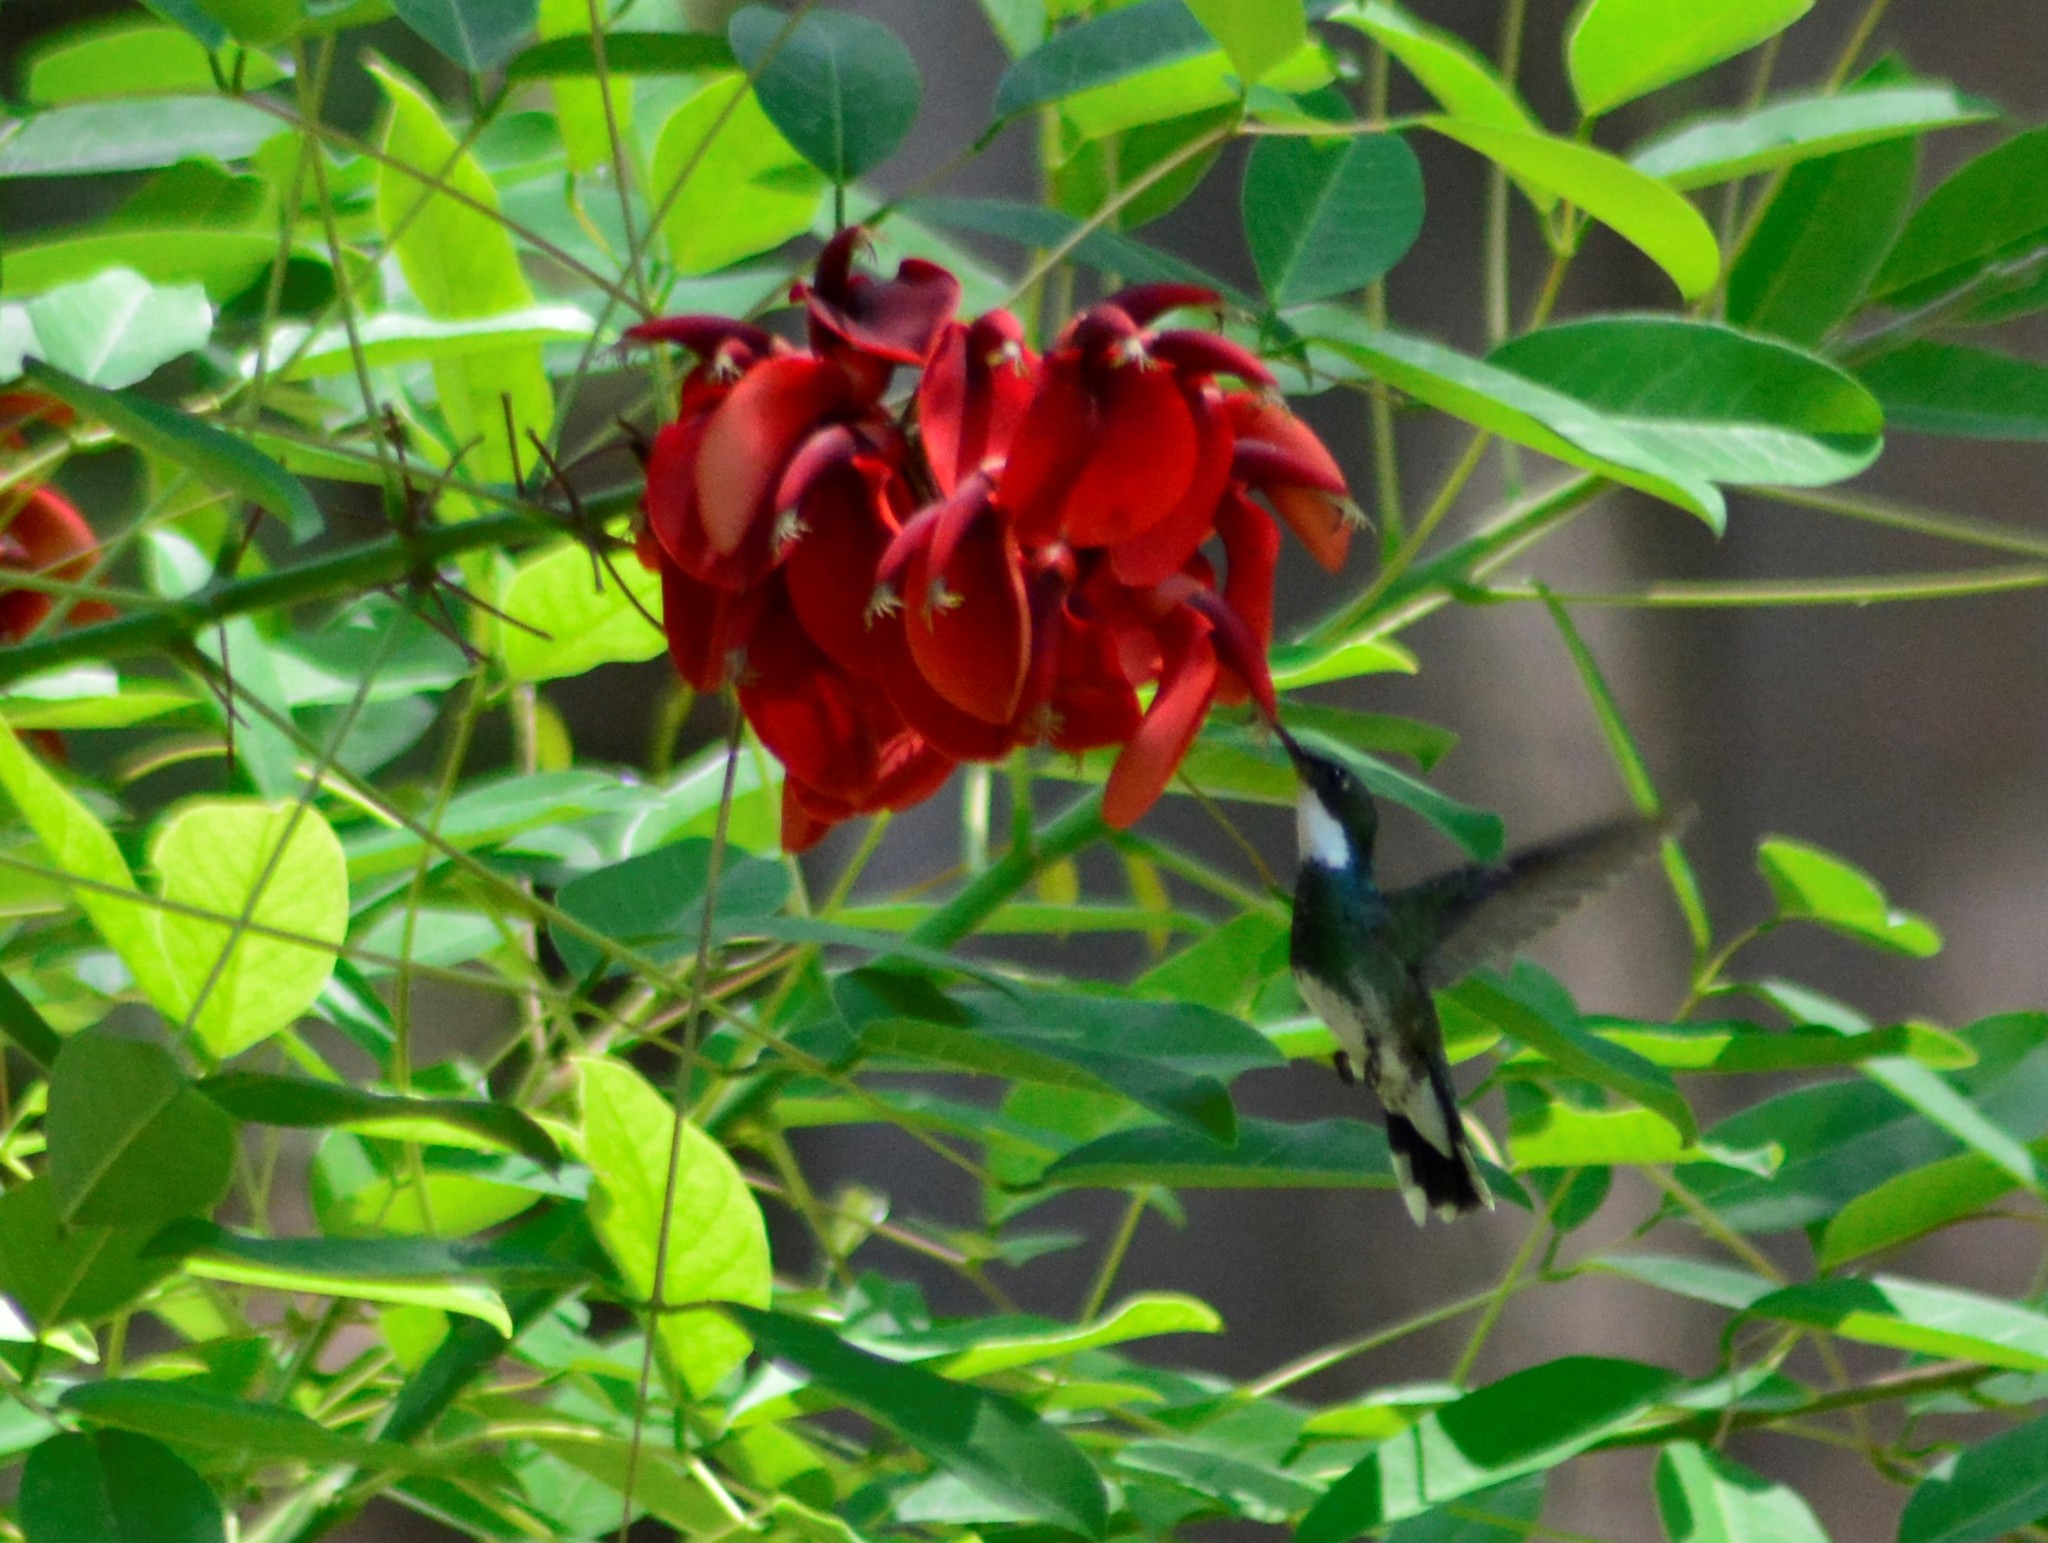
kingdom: Animalia
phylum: Chordata
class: Aves
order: Apodiformes
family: Trochilidae
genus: Leucochloris
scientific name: Leucochloris albicollis
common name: White-throated hummingbird
